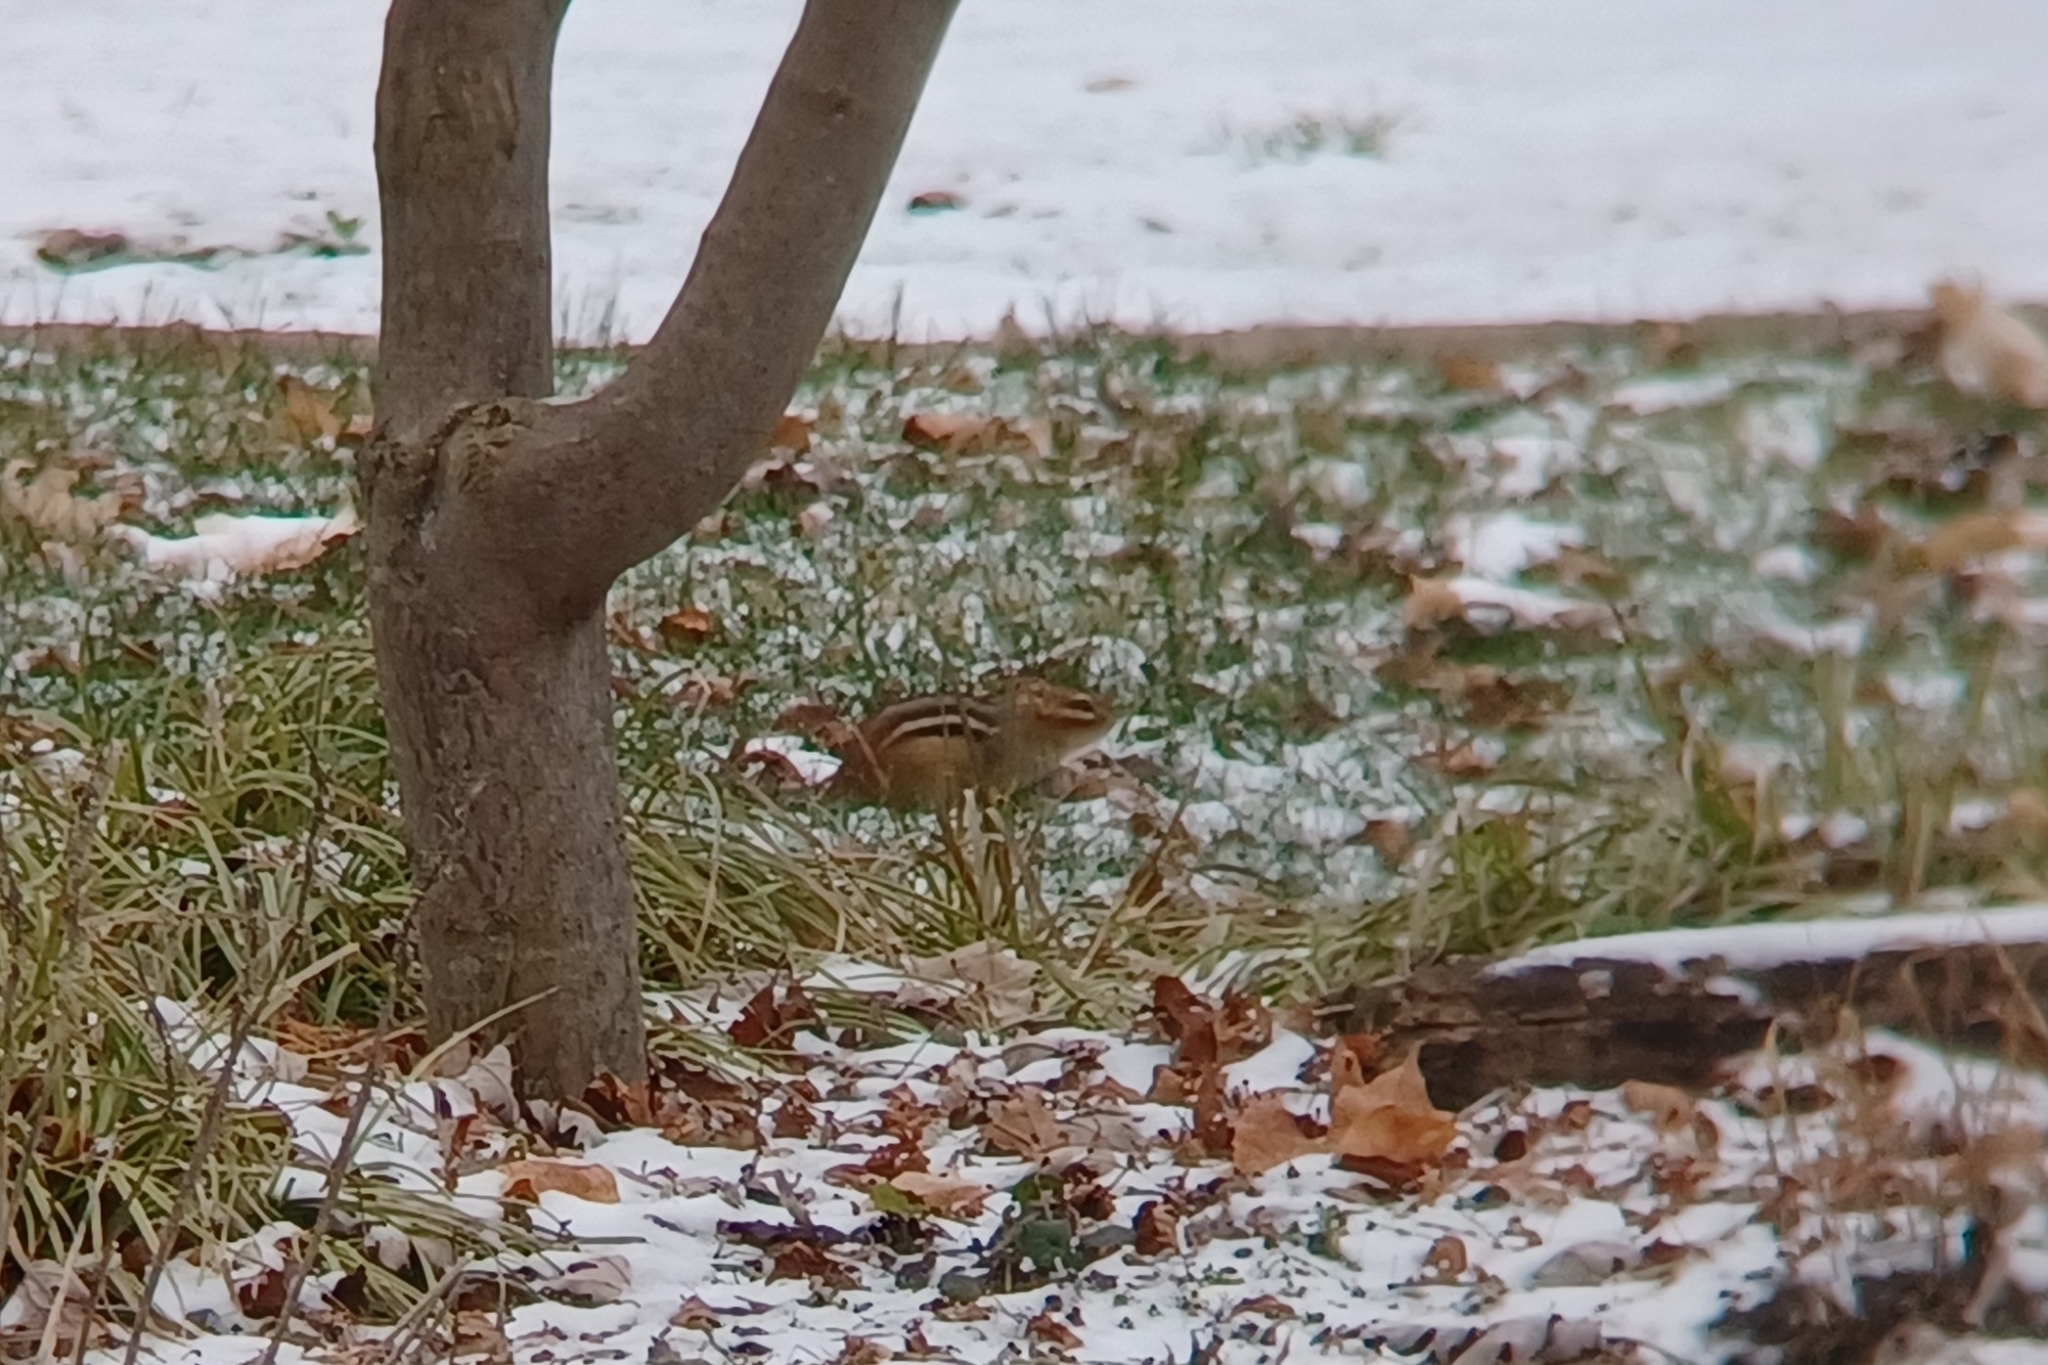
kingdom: Animalia
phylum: Chordata
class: Mammalia
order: Rodentia
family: Sciuridae
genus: Tamias
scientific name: Tamias striatus
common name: Eastern chipmunk
